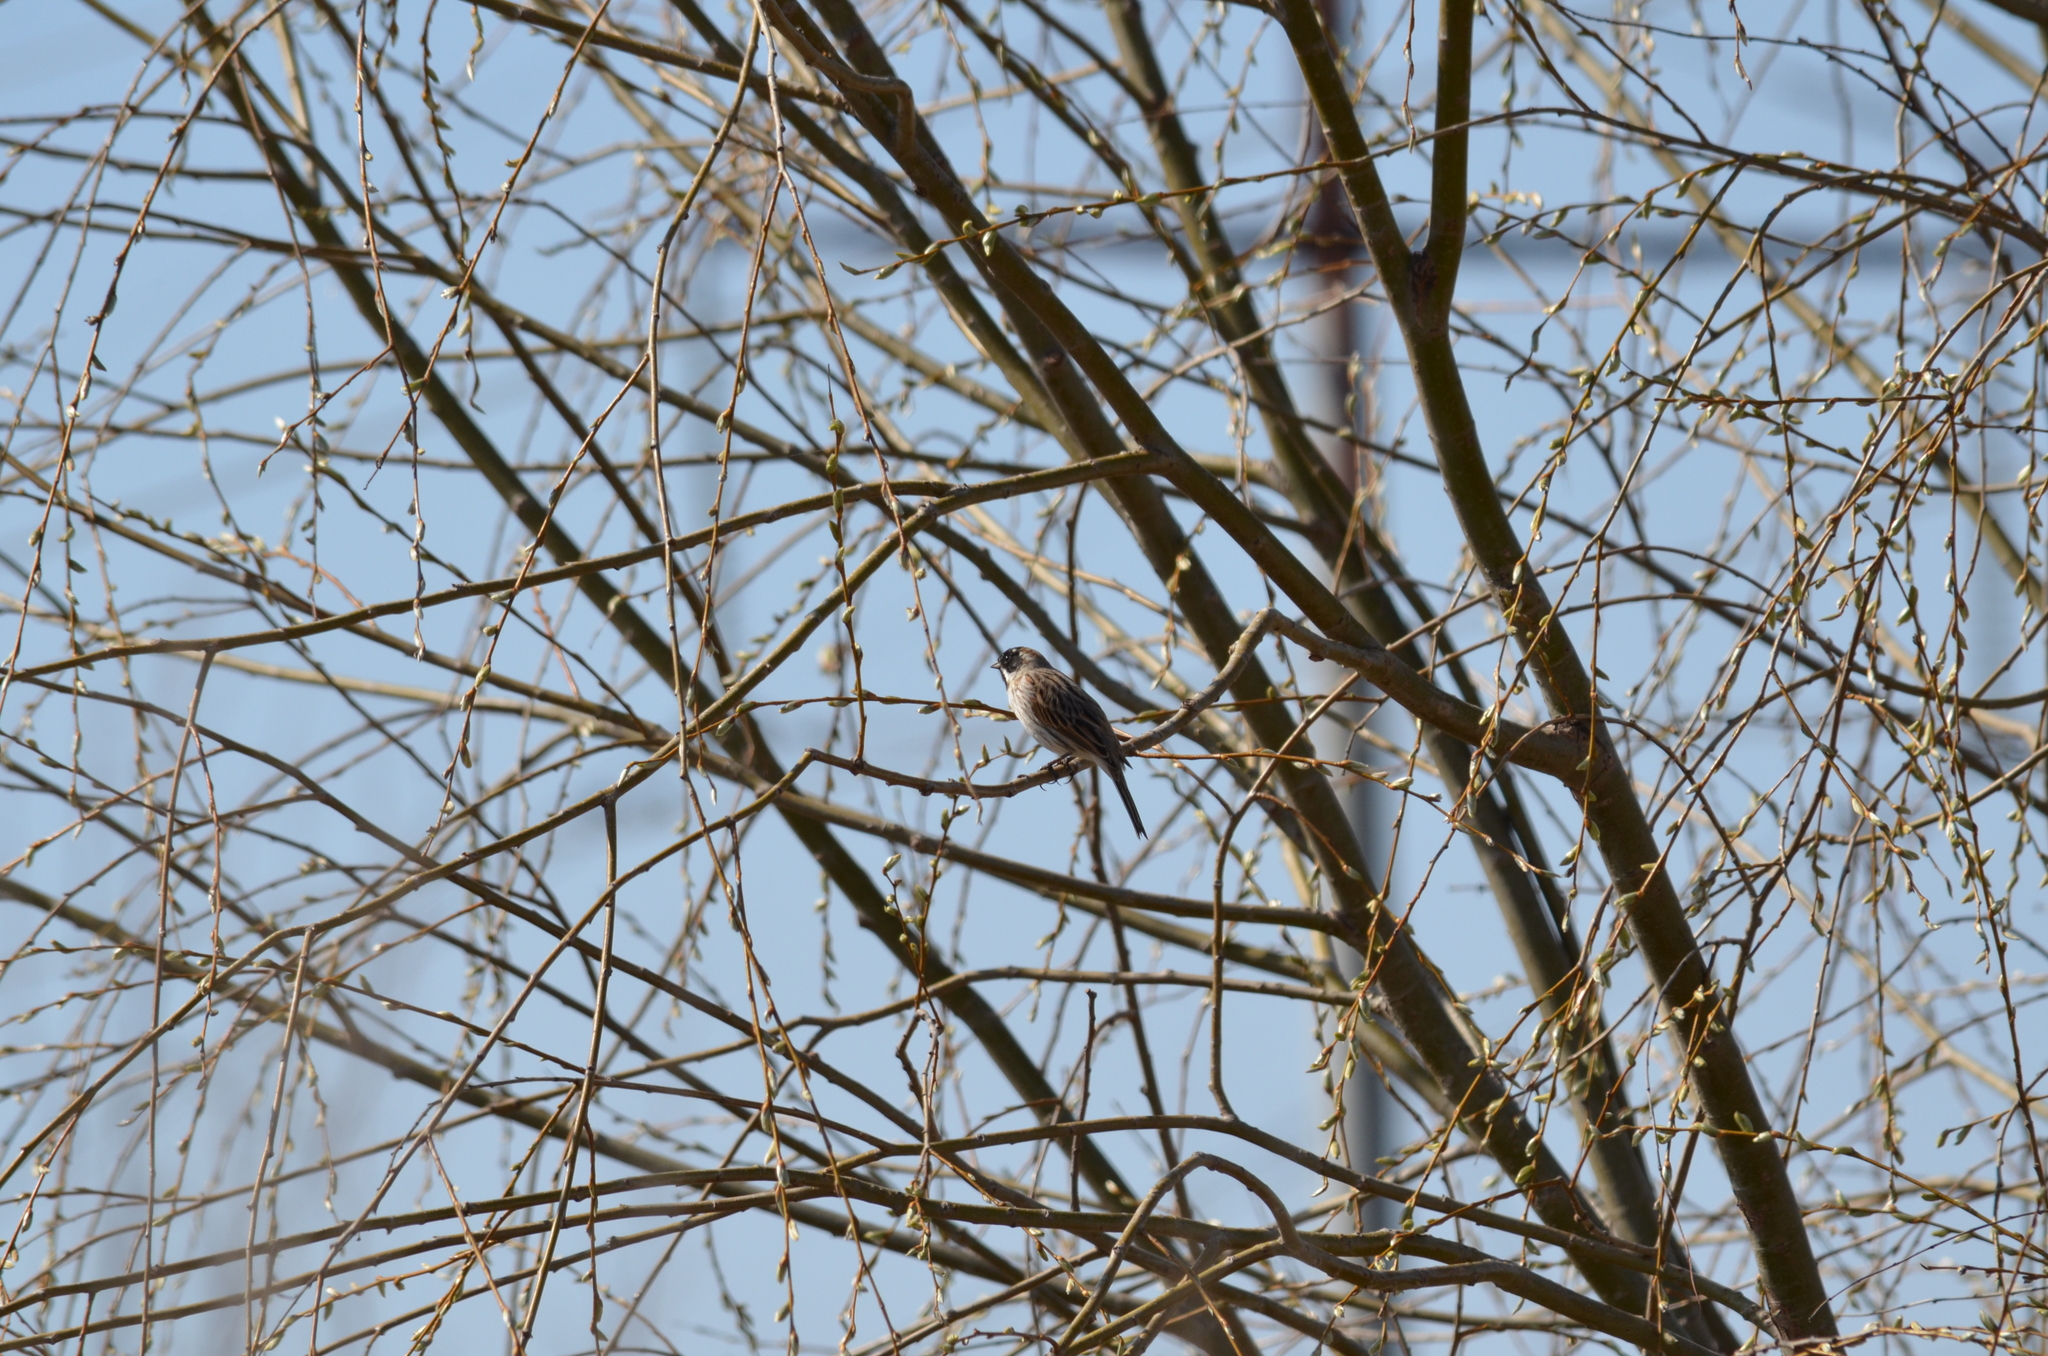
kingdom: Animalia
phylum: Chordata
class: Aves
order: Passeriformes
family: Emberizidae
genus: Emberiza
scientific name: Emberiza schoeniclus
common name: Reed bunting
